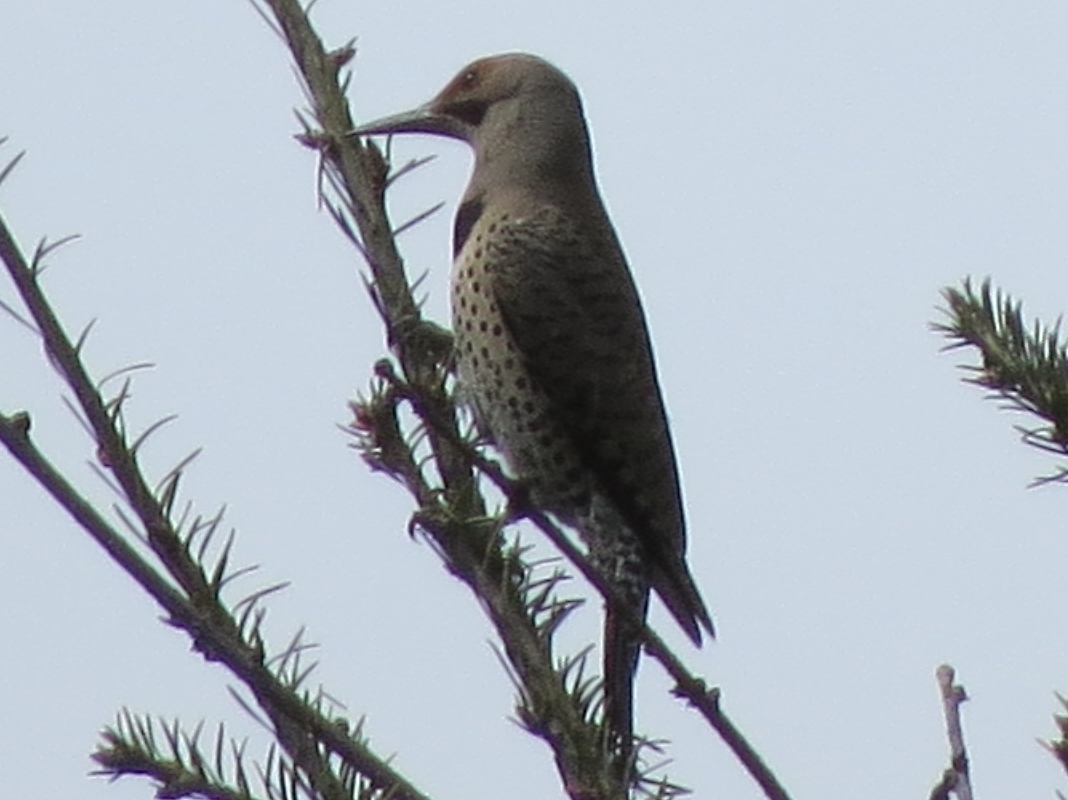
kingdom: Animalia
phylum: Chordata
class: Aves
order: Piciformes
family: Picidae
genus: Colaptes
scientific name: Colaptes
